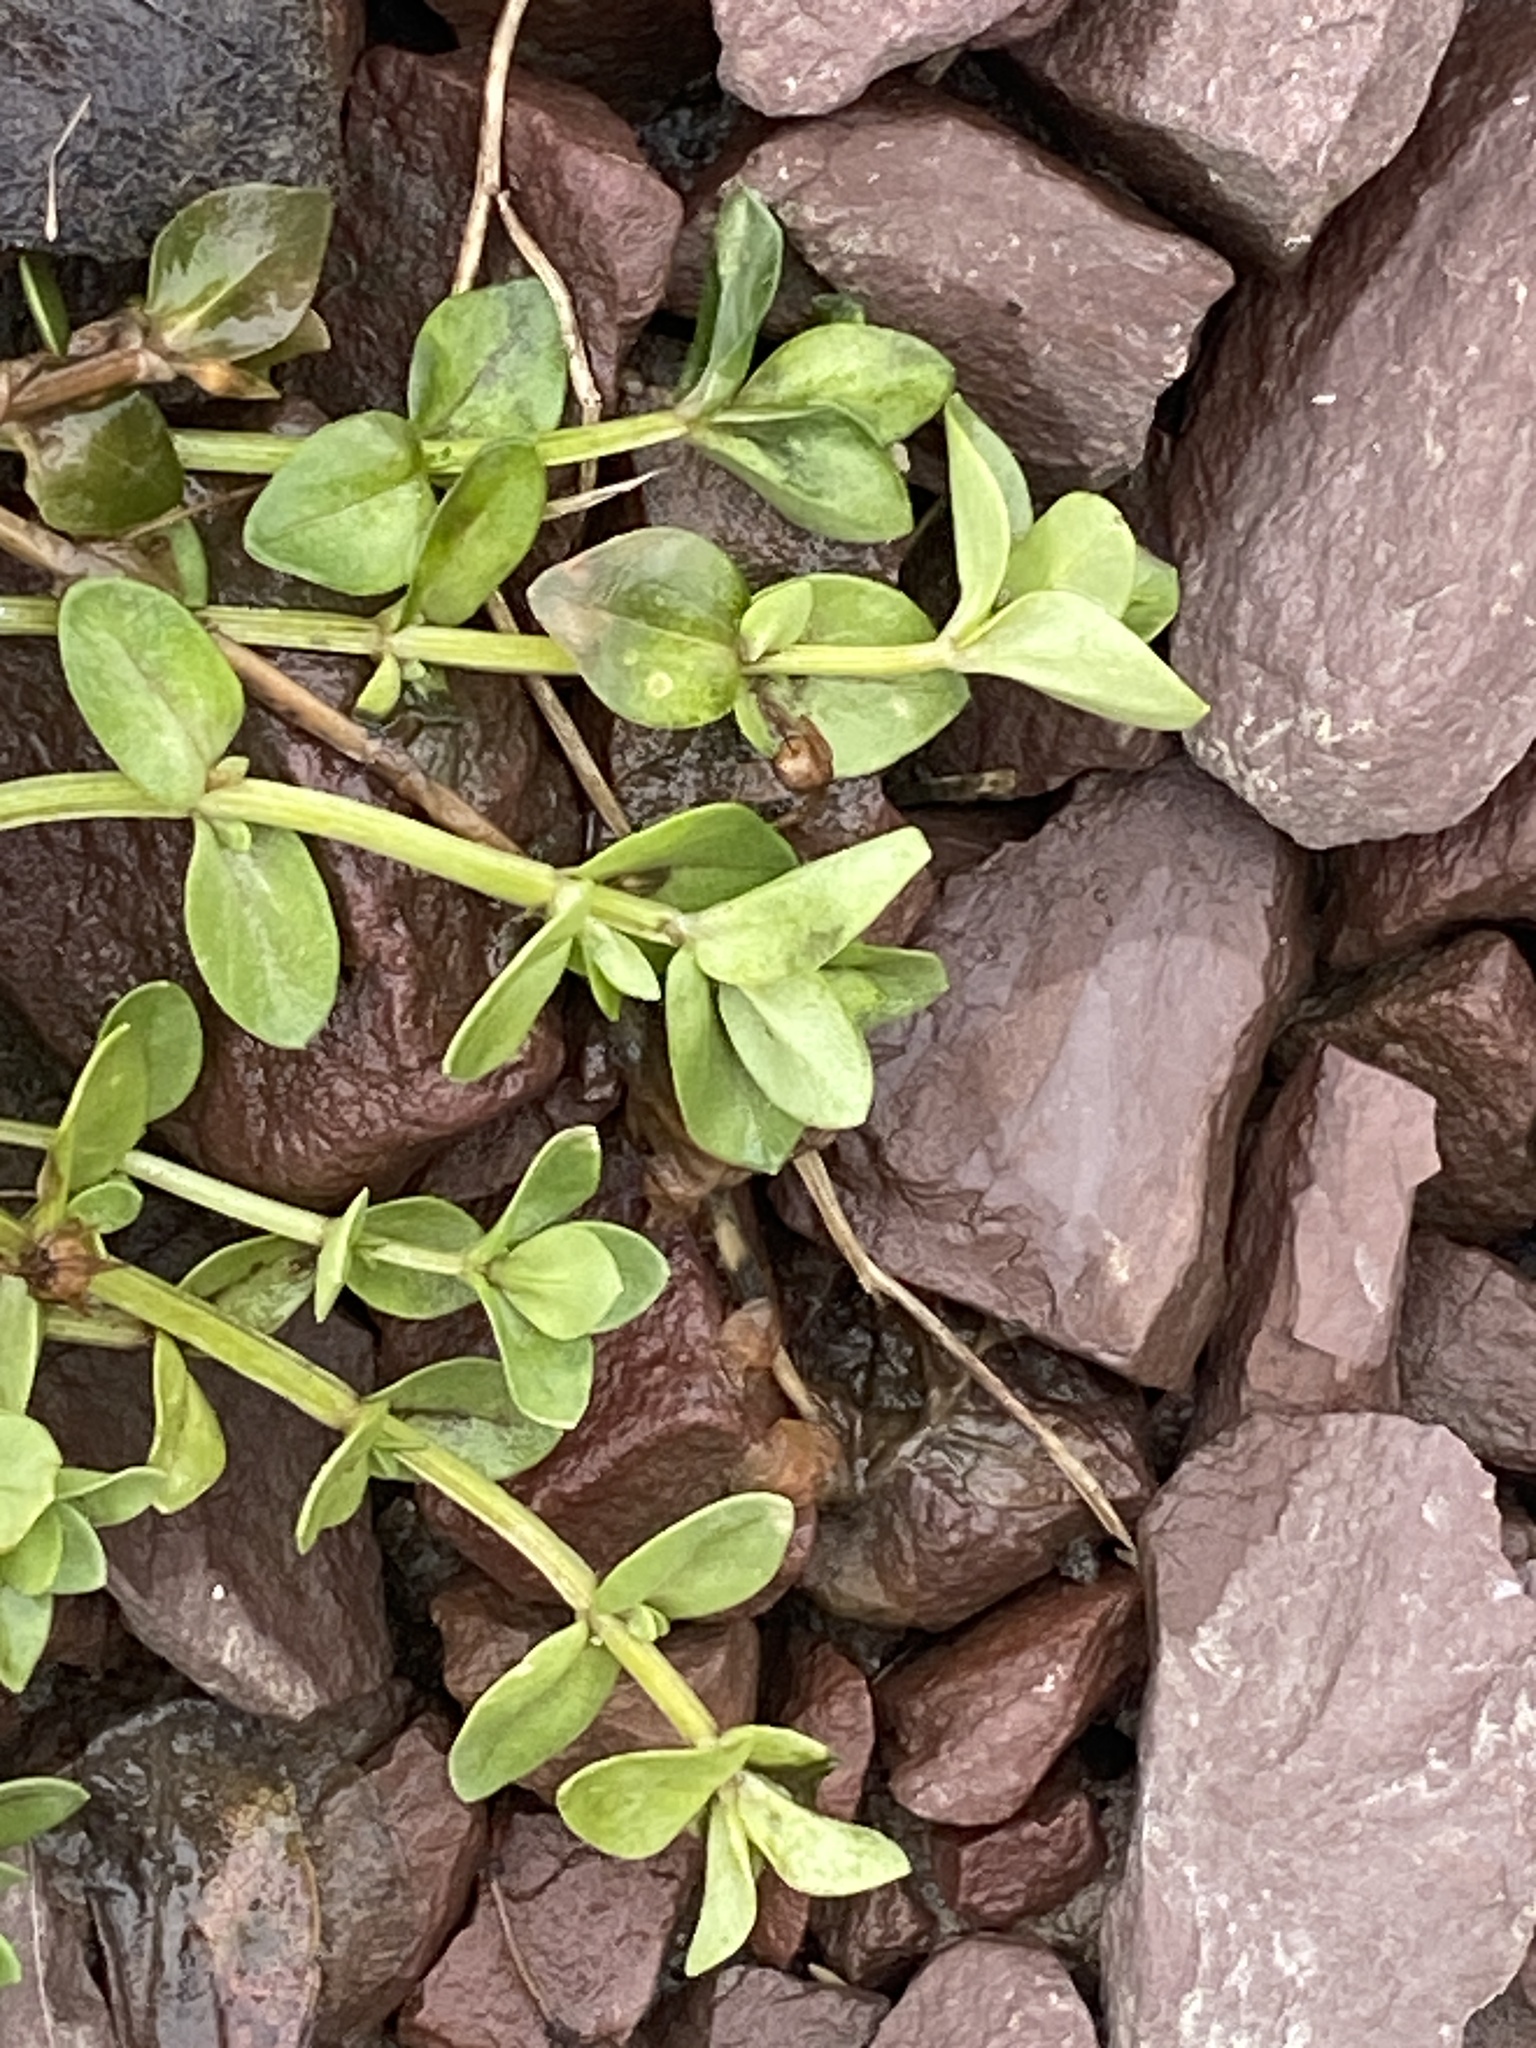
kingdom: Plantae
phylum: Tracheophyta
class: Magnoliopsida
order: Lamiales
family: Plantaginaceae
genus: Veronica
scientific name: Veronica serpyllifolia
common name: Thyme-leaved speedwell
